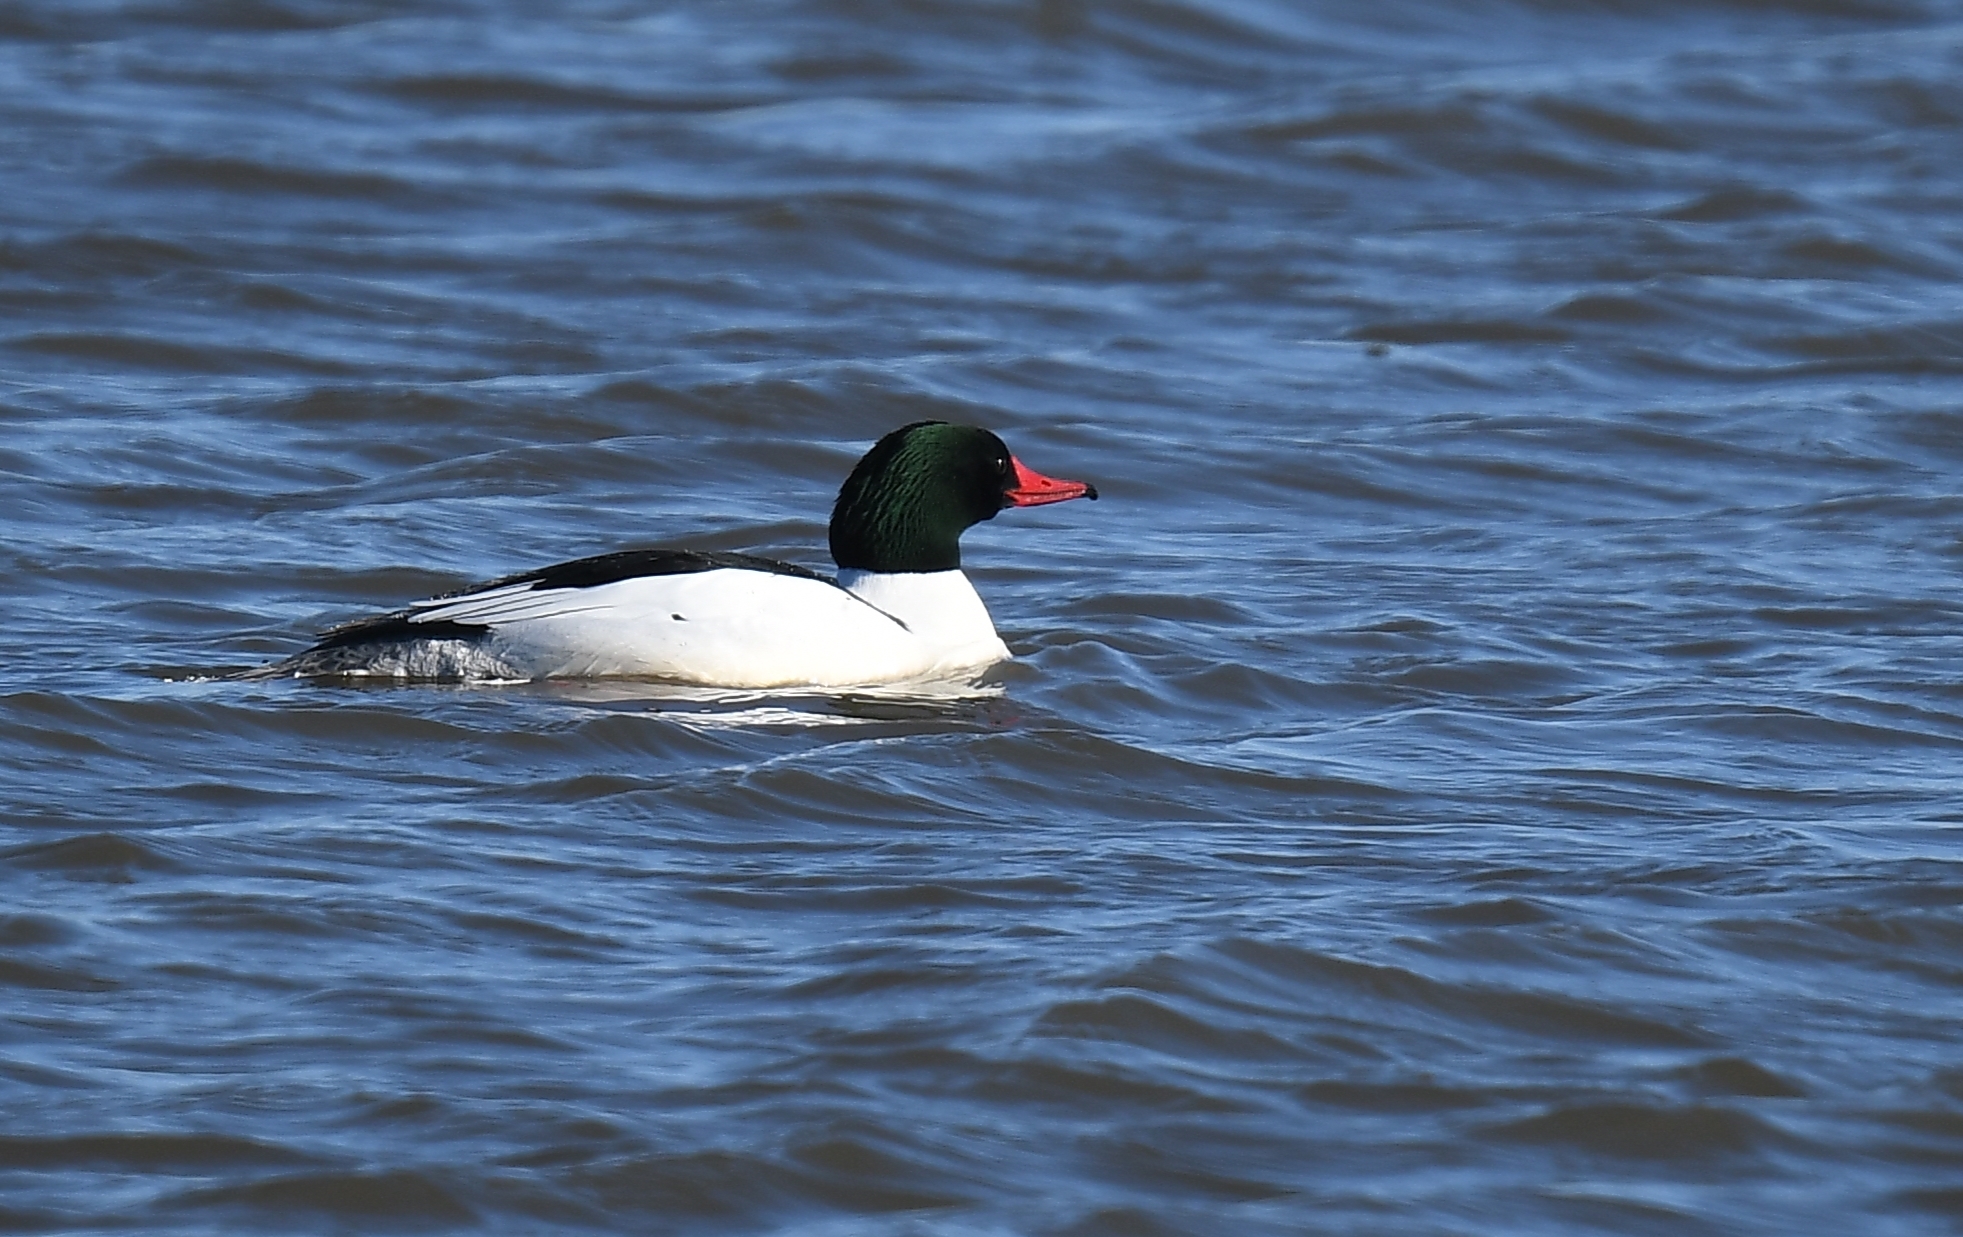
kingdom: Animalia
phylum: Chordata
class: Aves
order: Anseriformes
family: Anatidae
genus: Mergus
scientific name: Mergus merganser
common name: Common merganser
